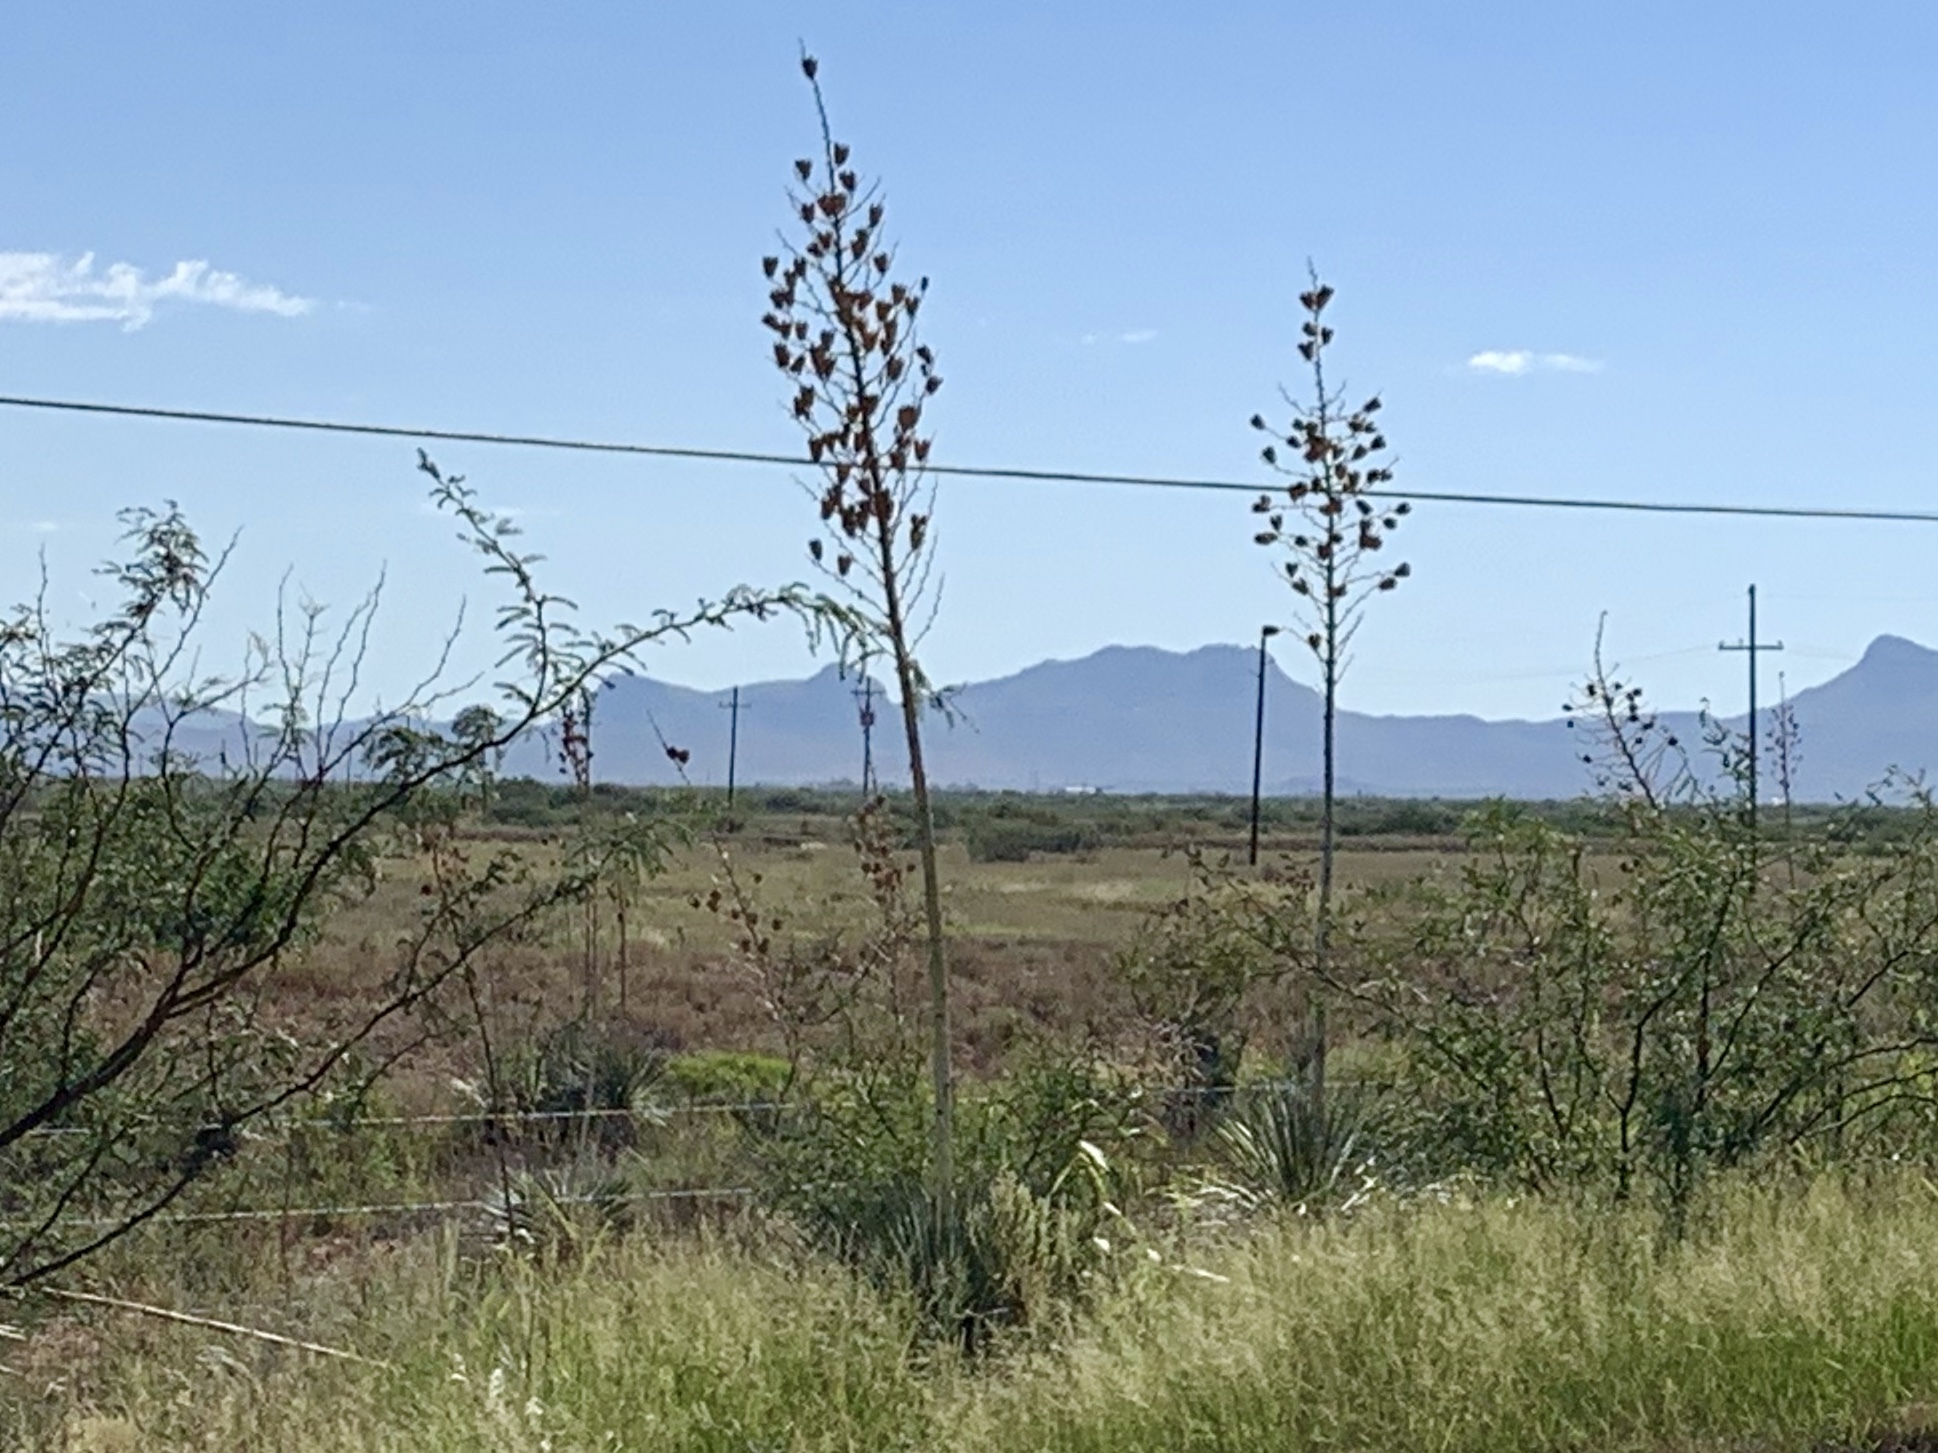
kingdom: Plantae
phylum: Tracheophyta
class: Liliopsida
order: Asparagales
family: Asparagaceae
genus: Yucca
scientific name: Yucca elata
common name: Palmella
